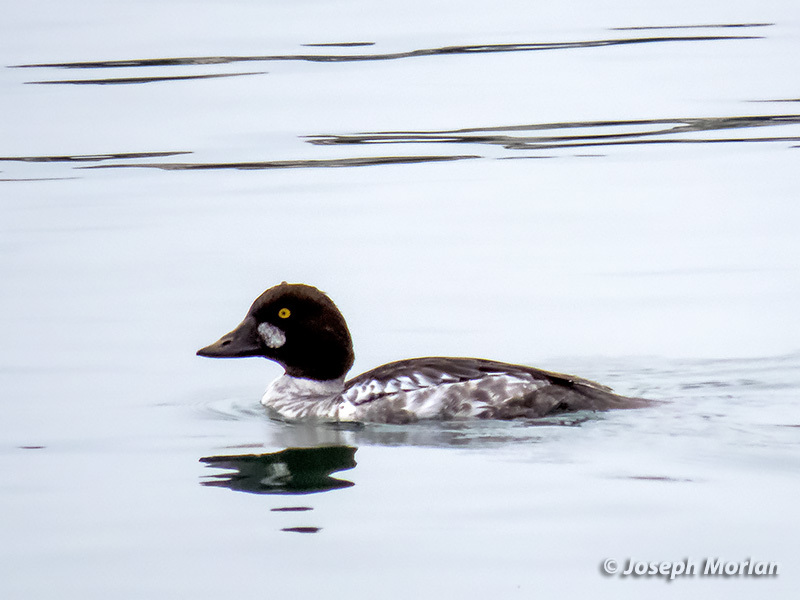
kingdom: Animalia
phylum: Chordata
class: Aves
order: Anseriformes
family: Anatidae
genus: Bucephala
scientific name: Bucephala clangula
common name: Common goldeneye
